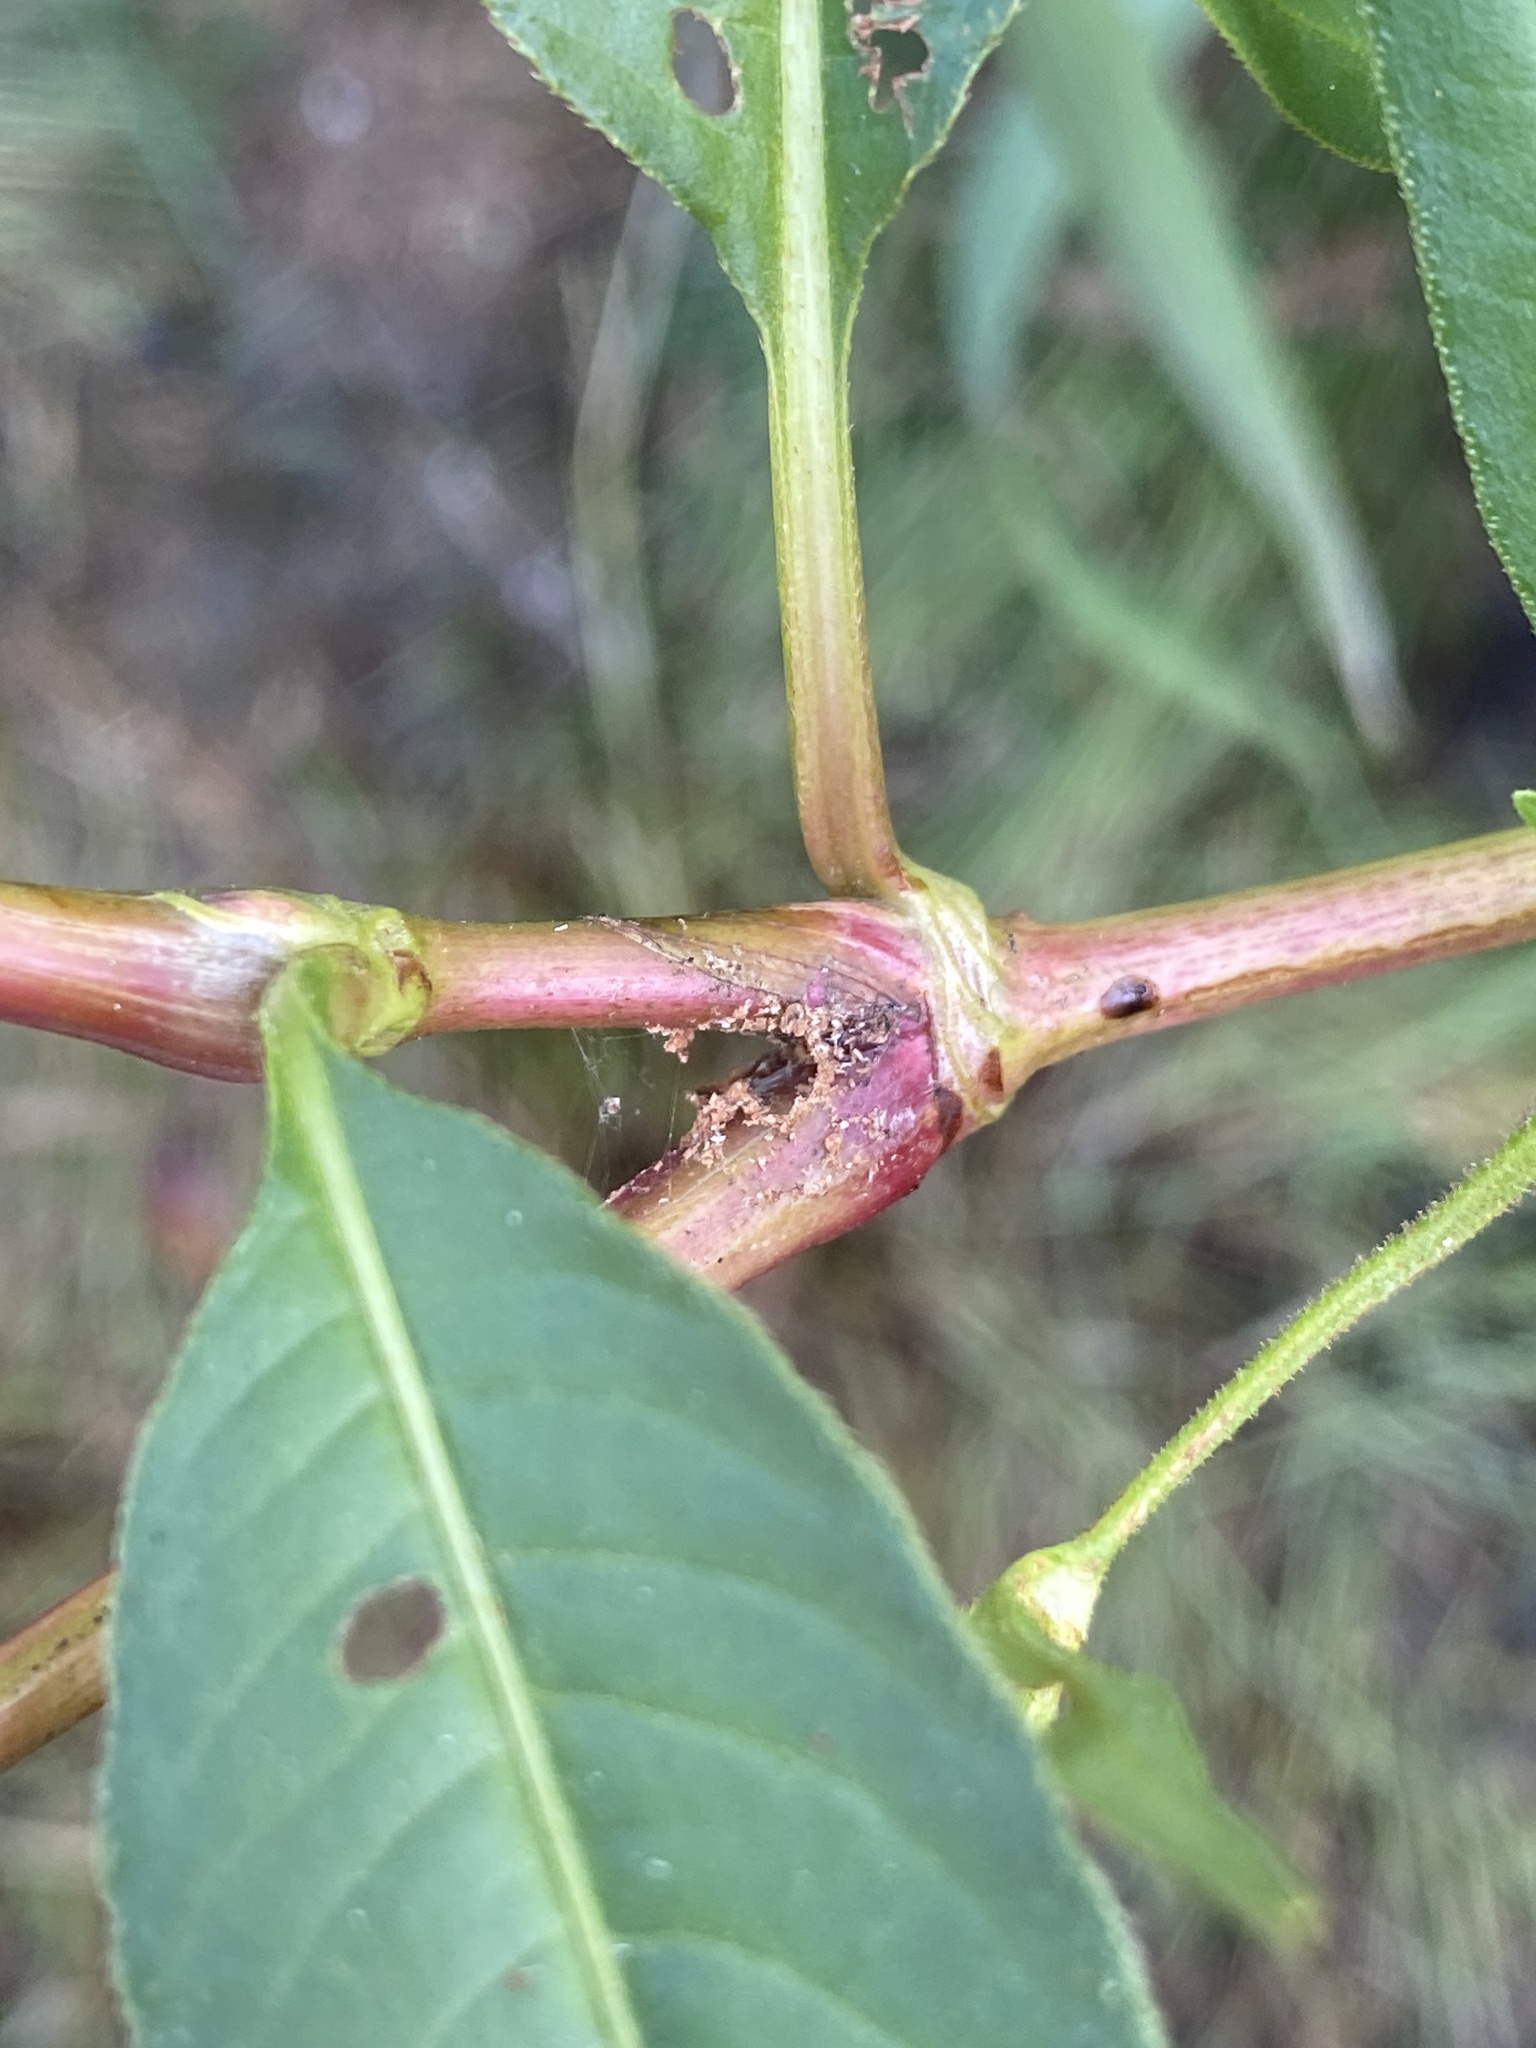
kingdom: Plantae
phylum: Tracheophyta
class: Magnoliopsida
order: Caryophyllales
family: Polygonaceae
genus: Persicaria
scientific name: Persicaria pensylvanica
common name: Pinkweed
